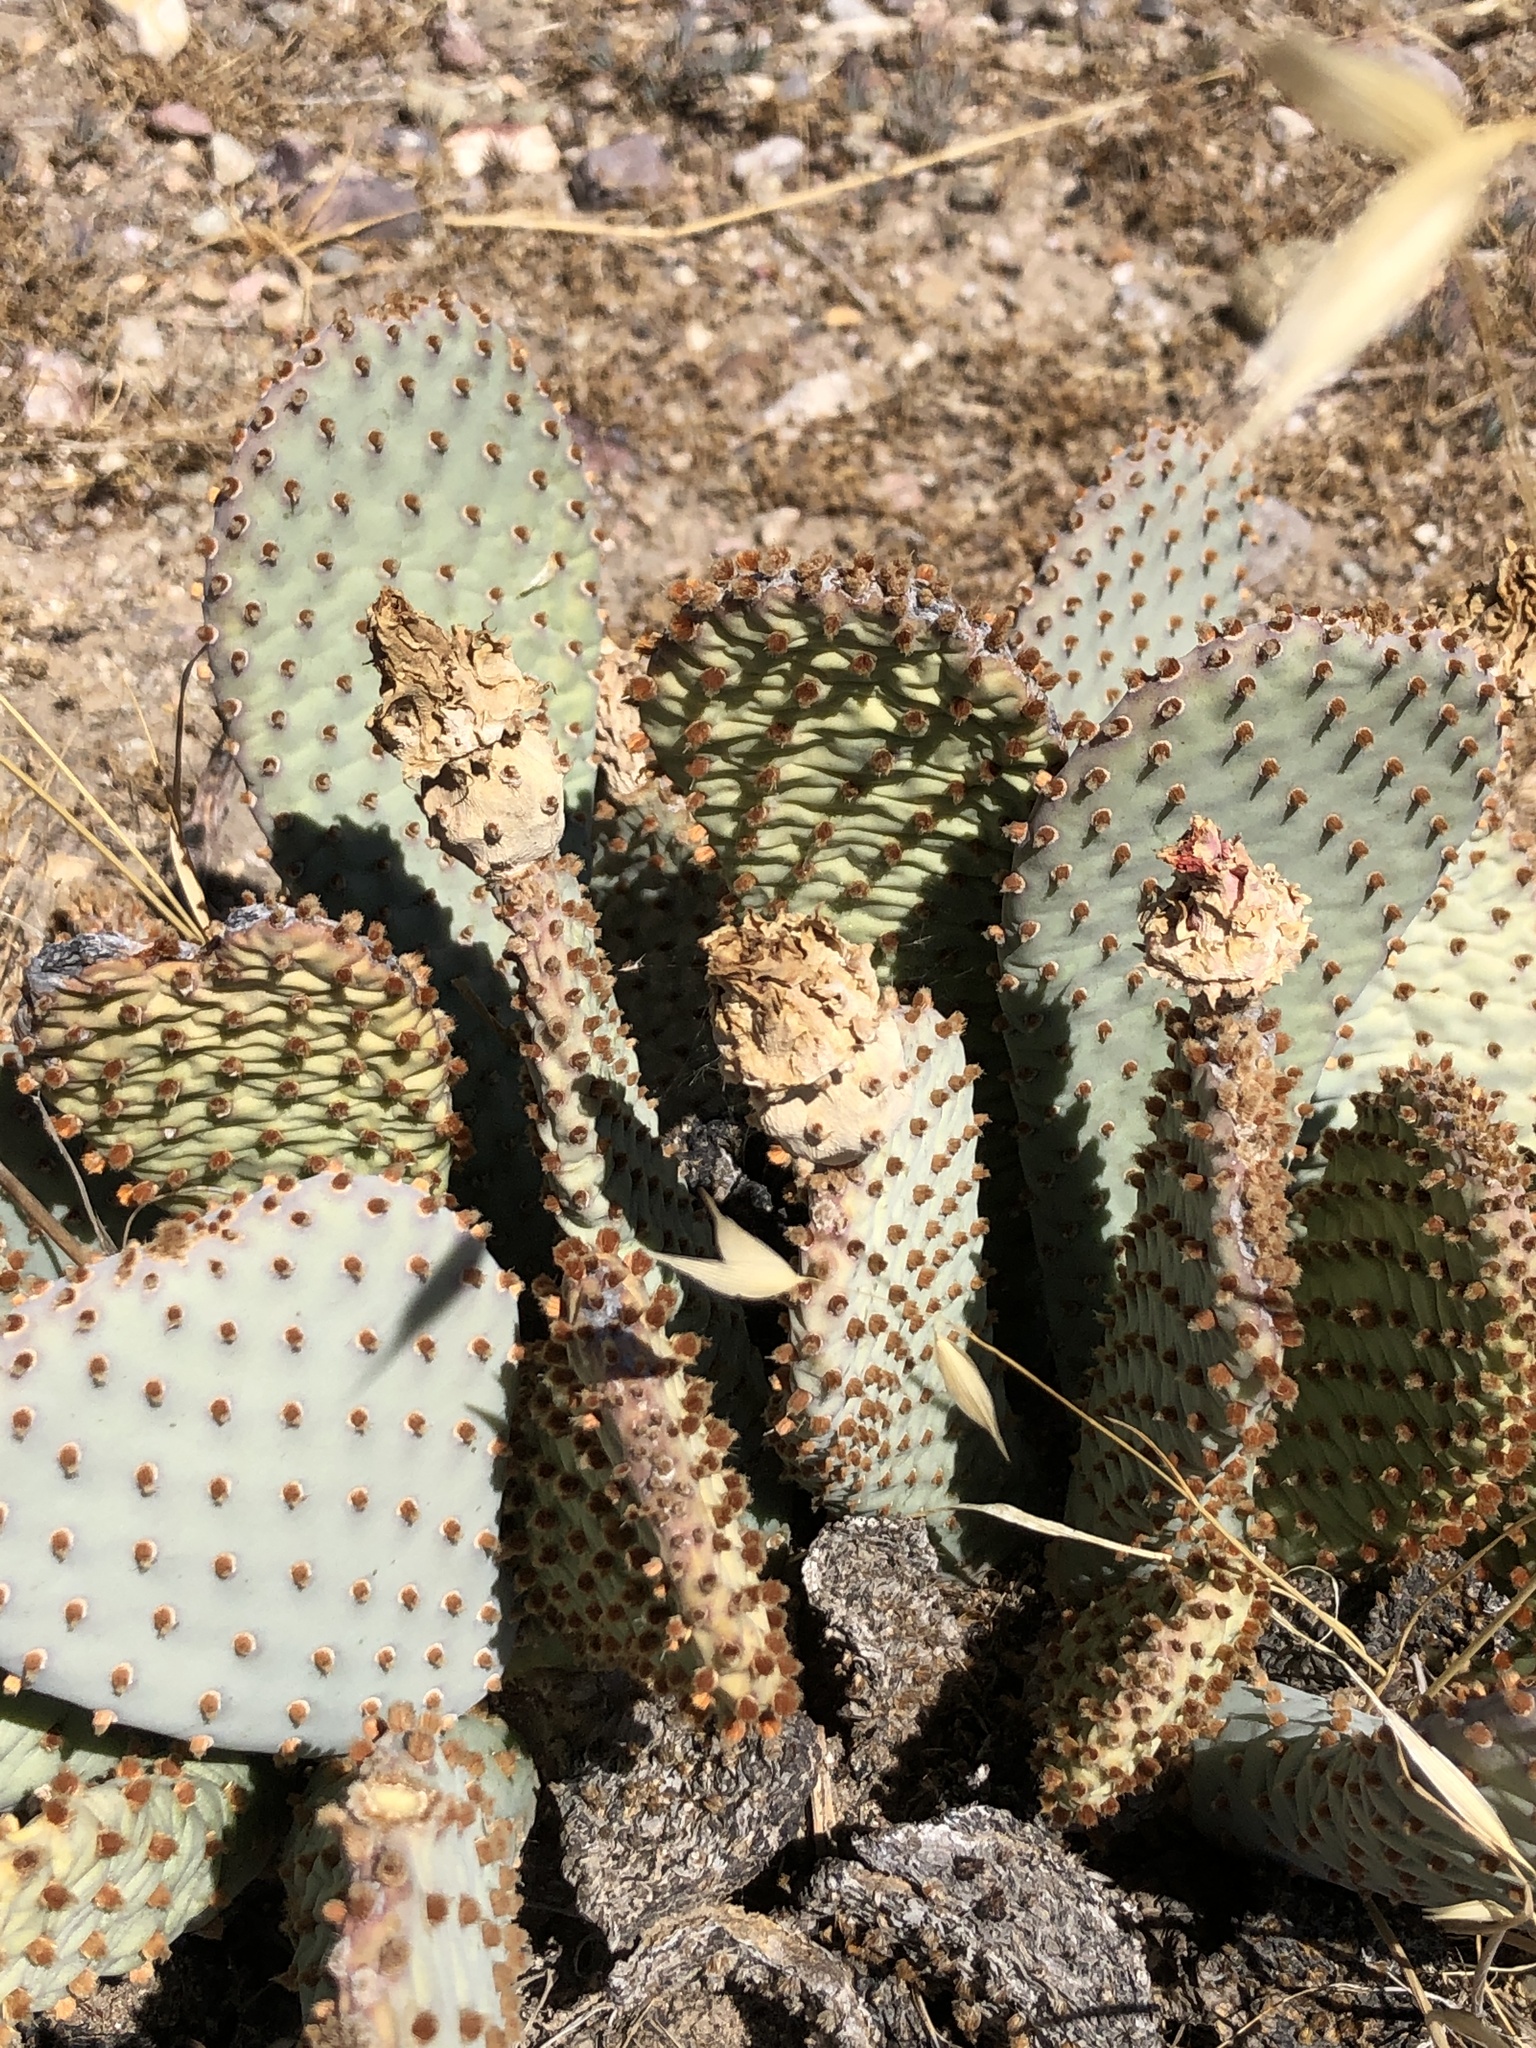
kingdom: Plantae
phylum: Tracheophyta
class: Magnoliopsida
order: Caryophyllales
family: Cactaceae
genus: Opuntia
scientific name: Opuntia basilaris
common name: Beavertail prickly-pear
